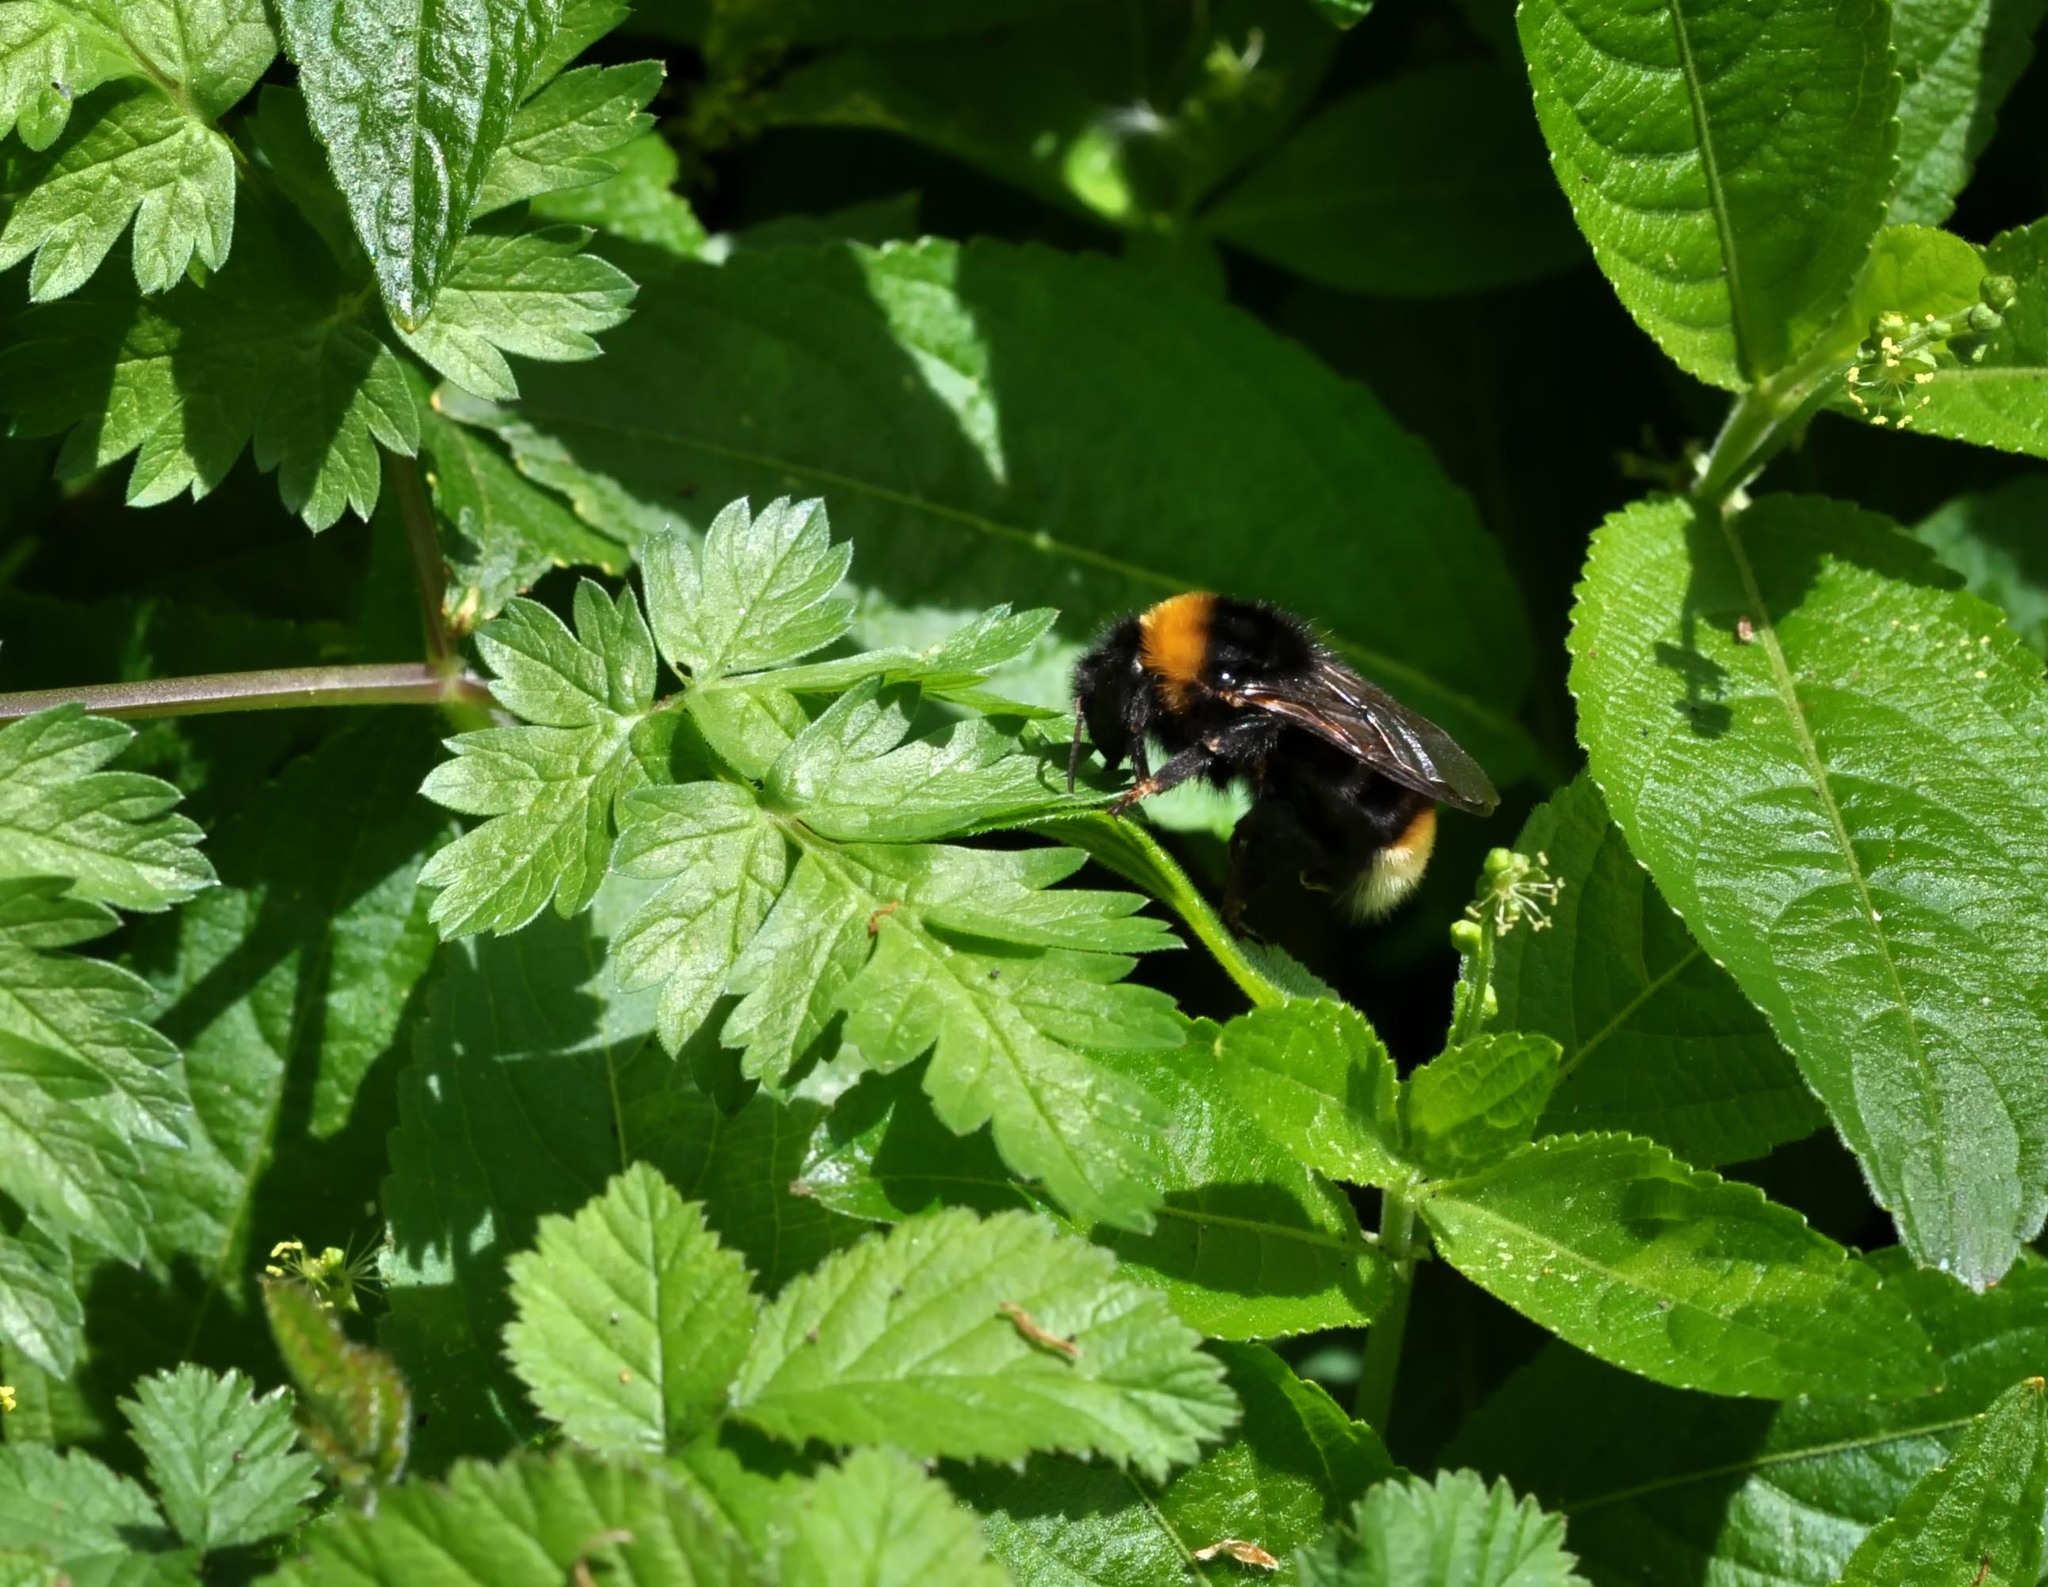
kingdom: Animalia
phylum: Arthropoda
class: Insecta
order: Hymenoptera
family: Apidae
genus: Bombus
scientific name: Bombus vestalis
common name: Vestal cuckoo bee
